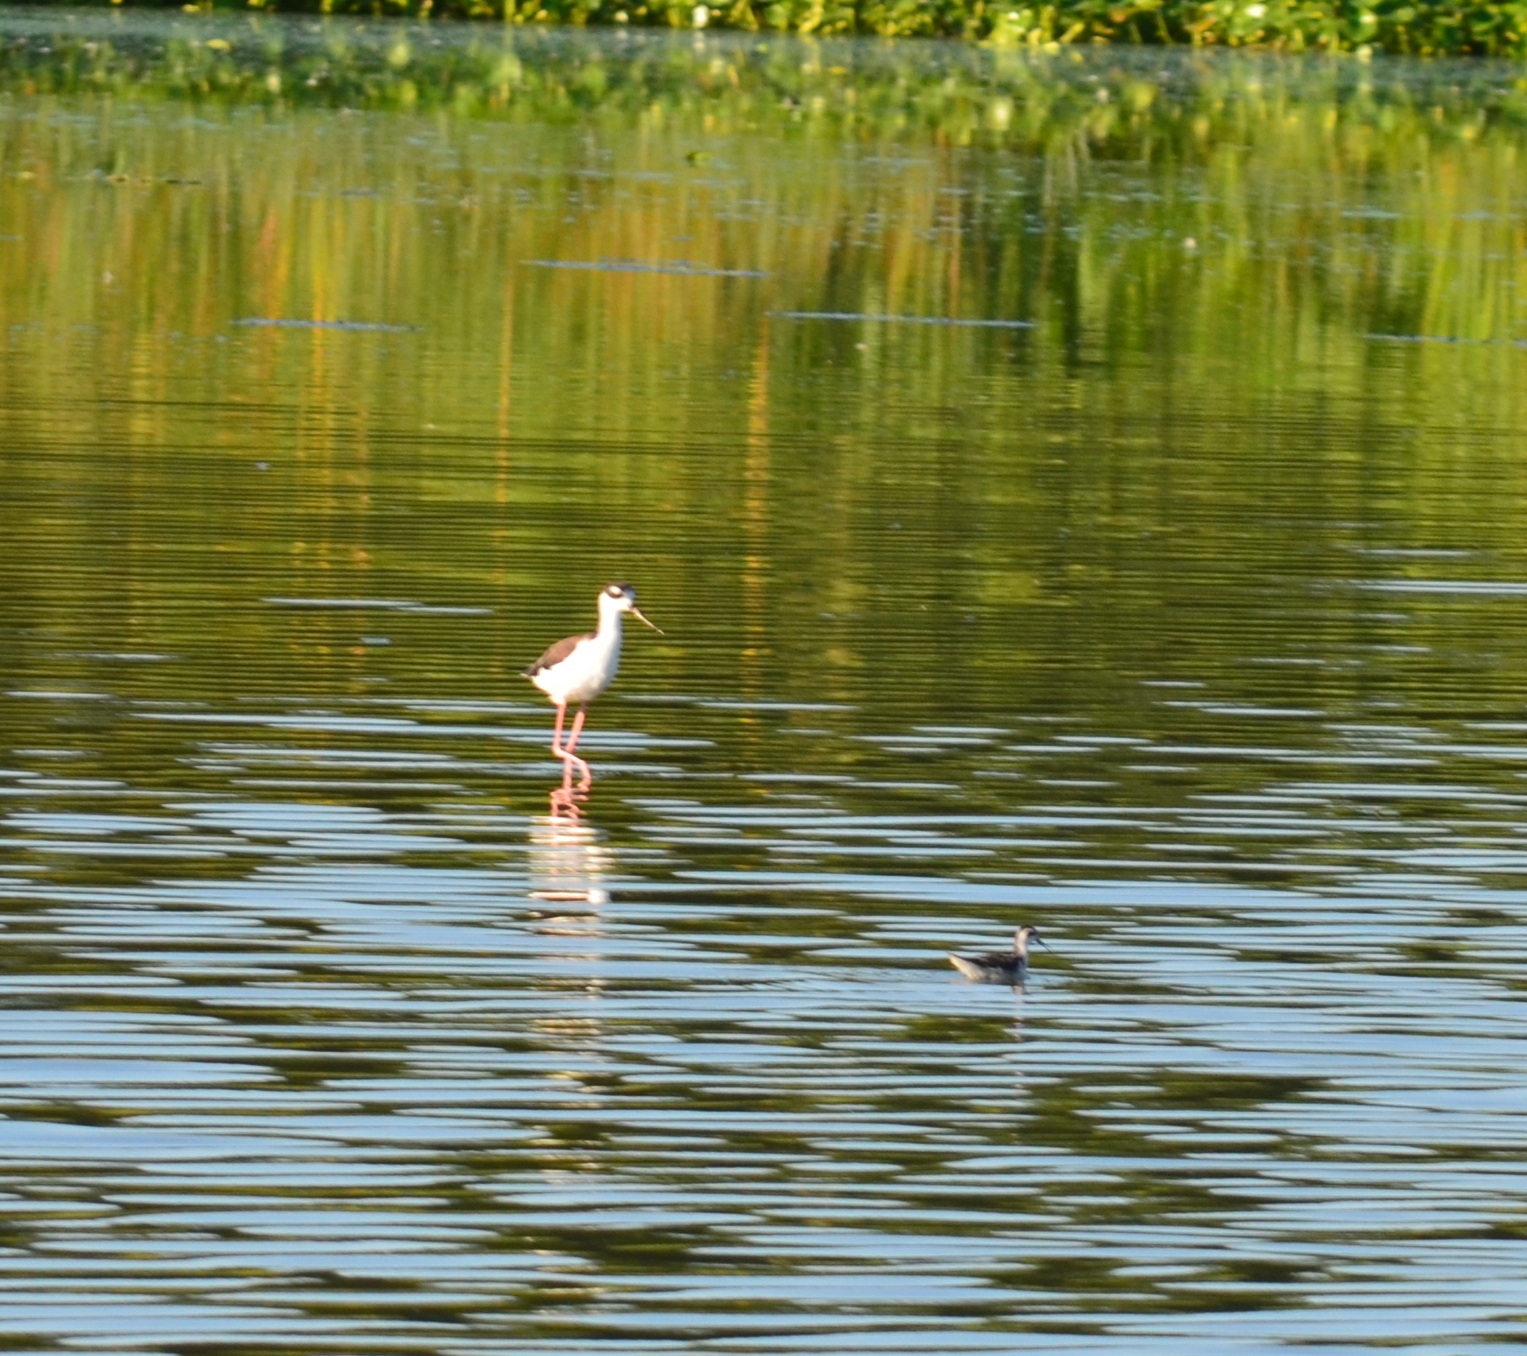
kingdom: Animalia
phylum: Chordata
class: Aves
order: Charadriiformes
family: Scolopacidae
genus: Phalaropus
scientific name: Phalaropus lobatus
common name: Red-necked phalarope
